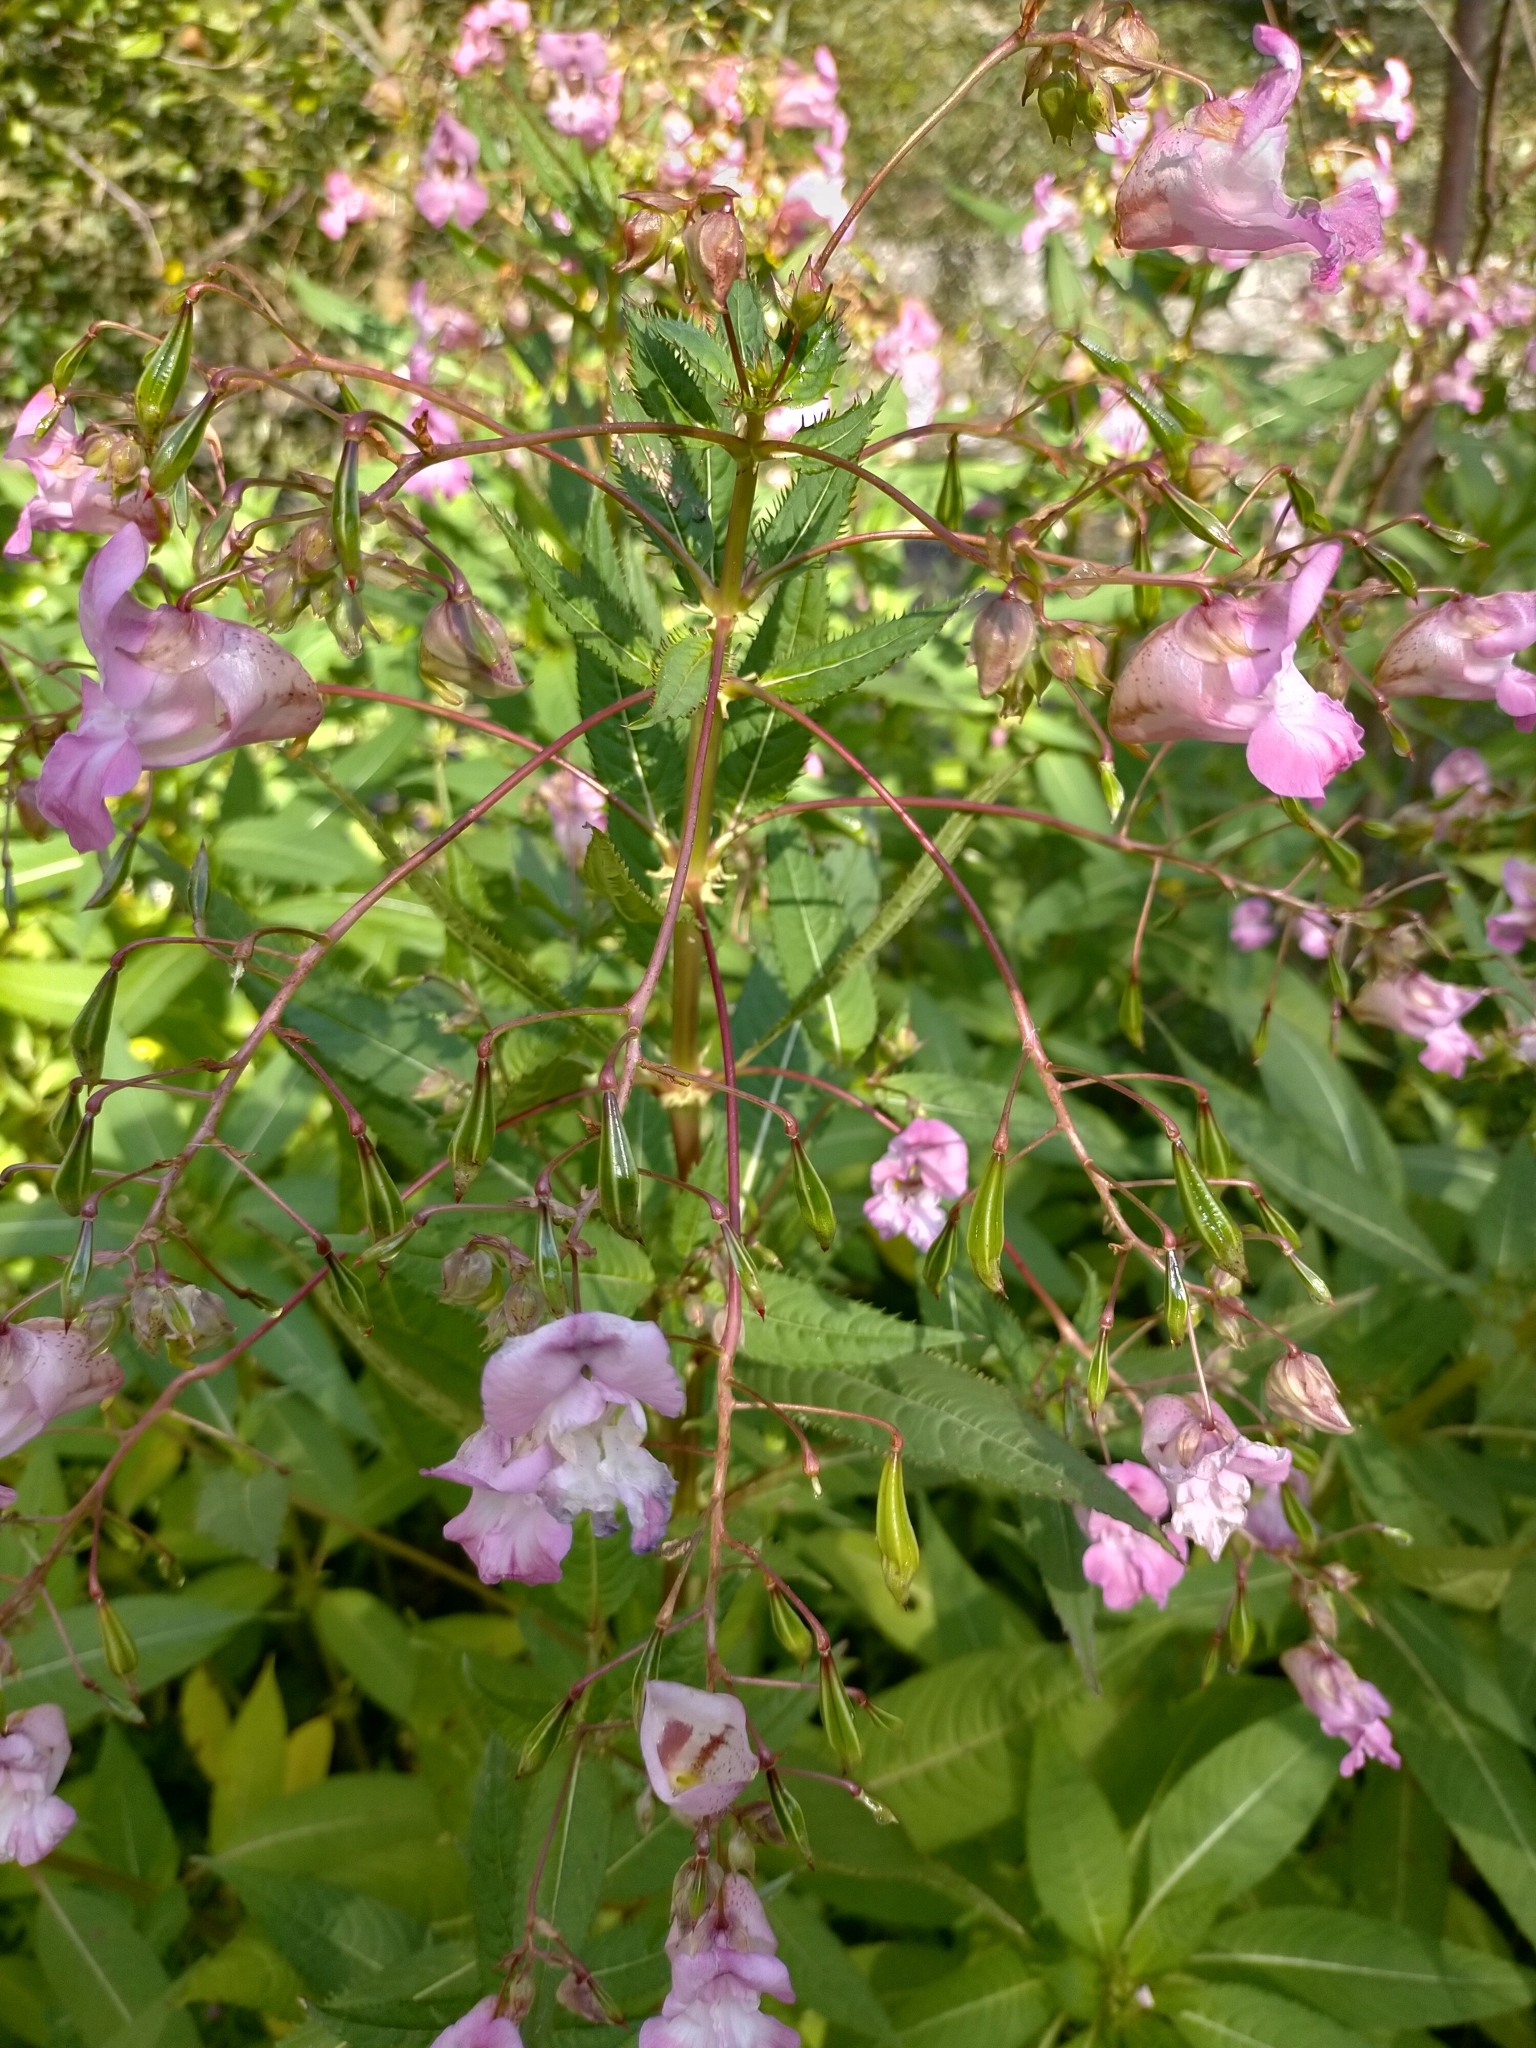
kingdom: Plantae
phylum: Tracheophyta
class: Magnoliopsida
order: Ericales
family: Balsaminaceae
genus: Impatiens
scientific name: Impatiens glandulifera
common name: Himalayan balsam
